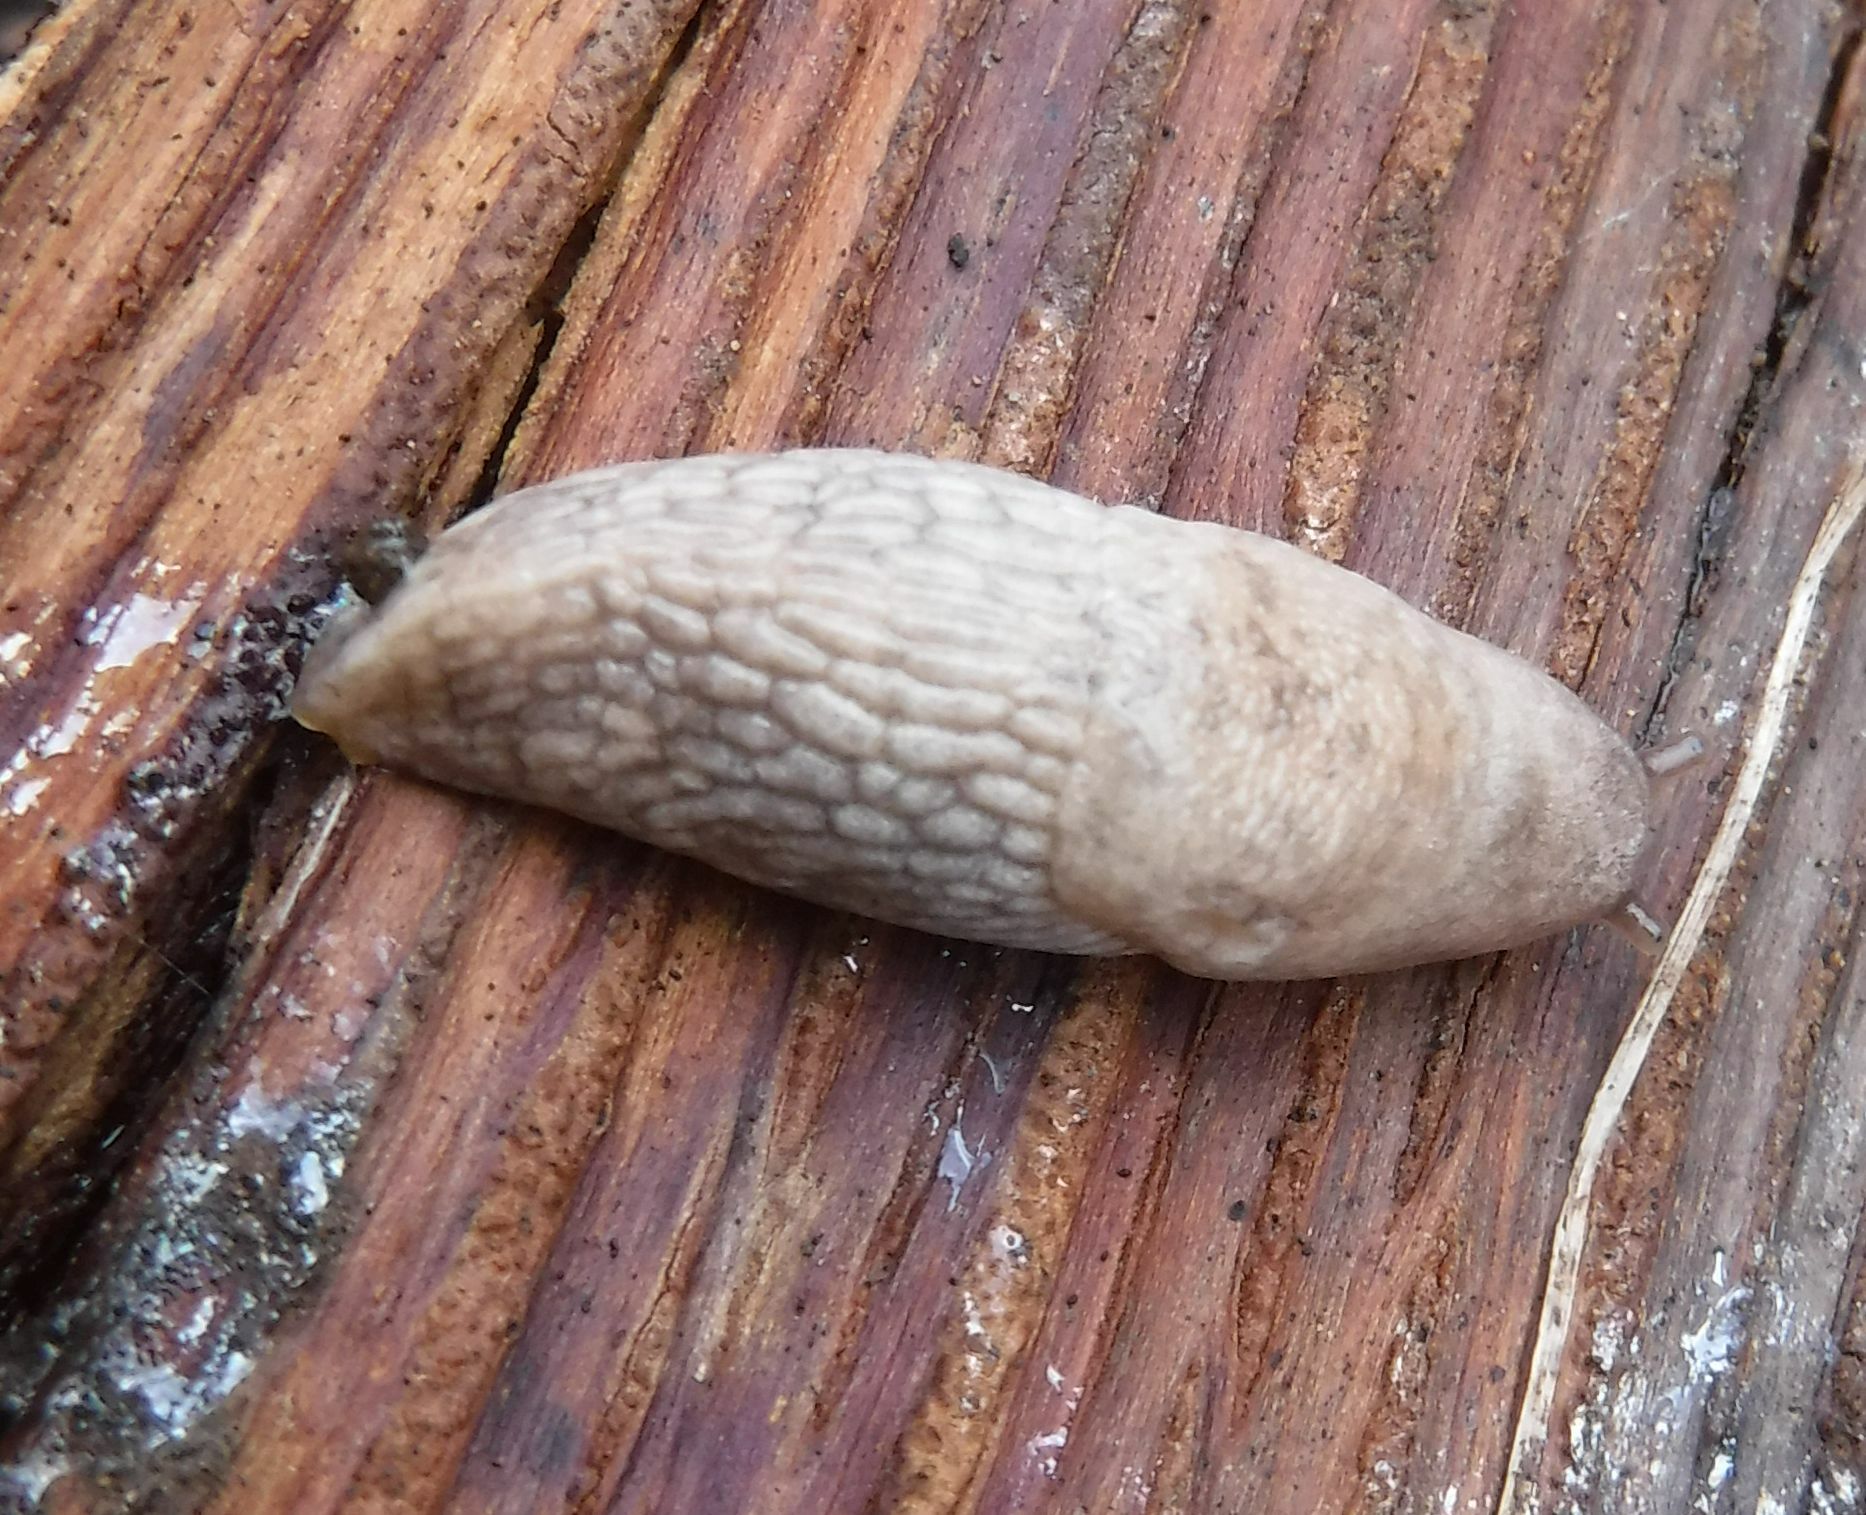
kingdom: Animalia
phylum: Mollusca
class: Gastropoda
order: Stylommatophora
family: Agriolimacidae
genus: Deroceras
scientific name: Deroceras reticulatum
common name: Gray field slug
